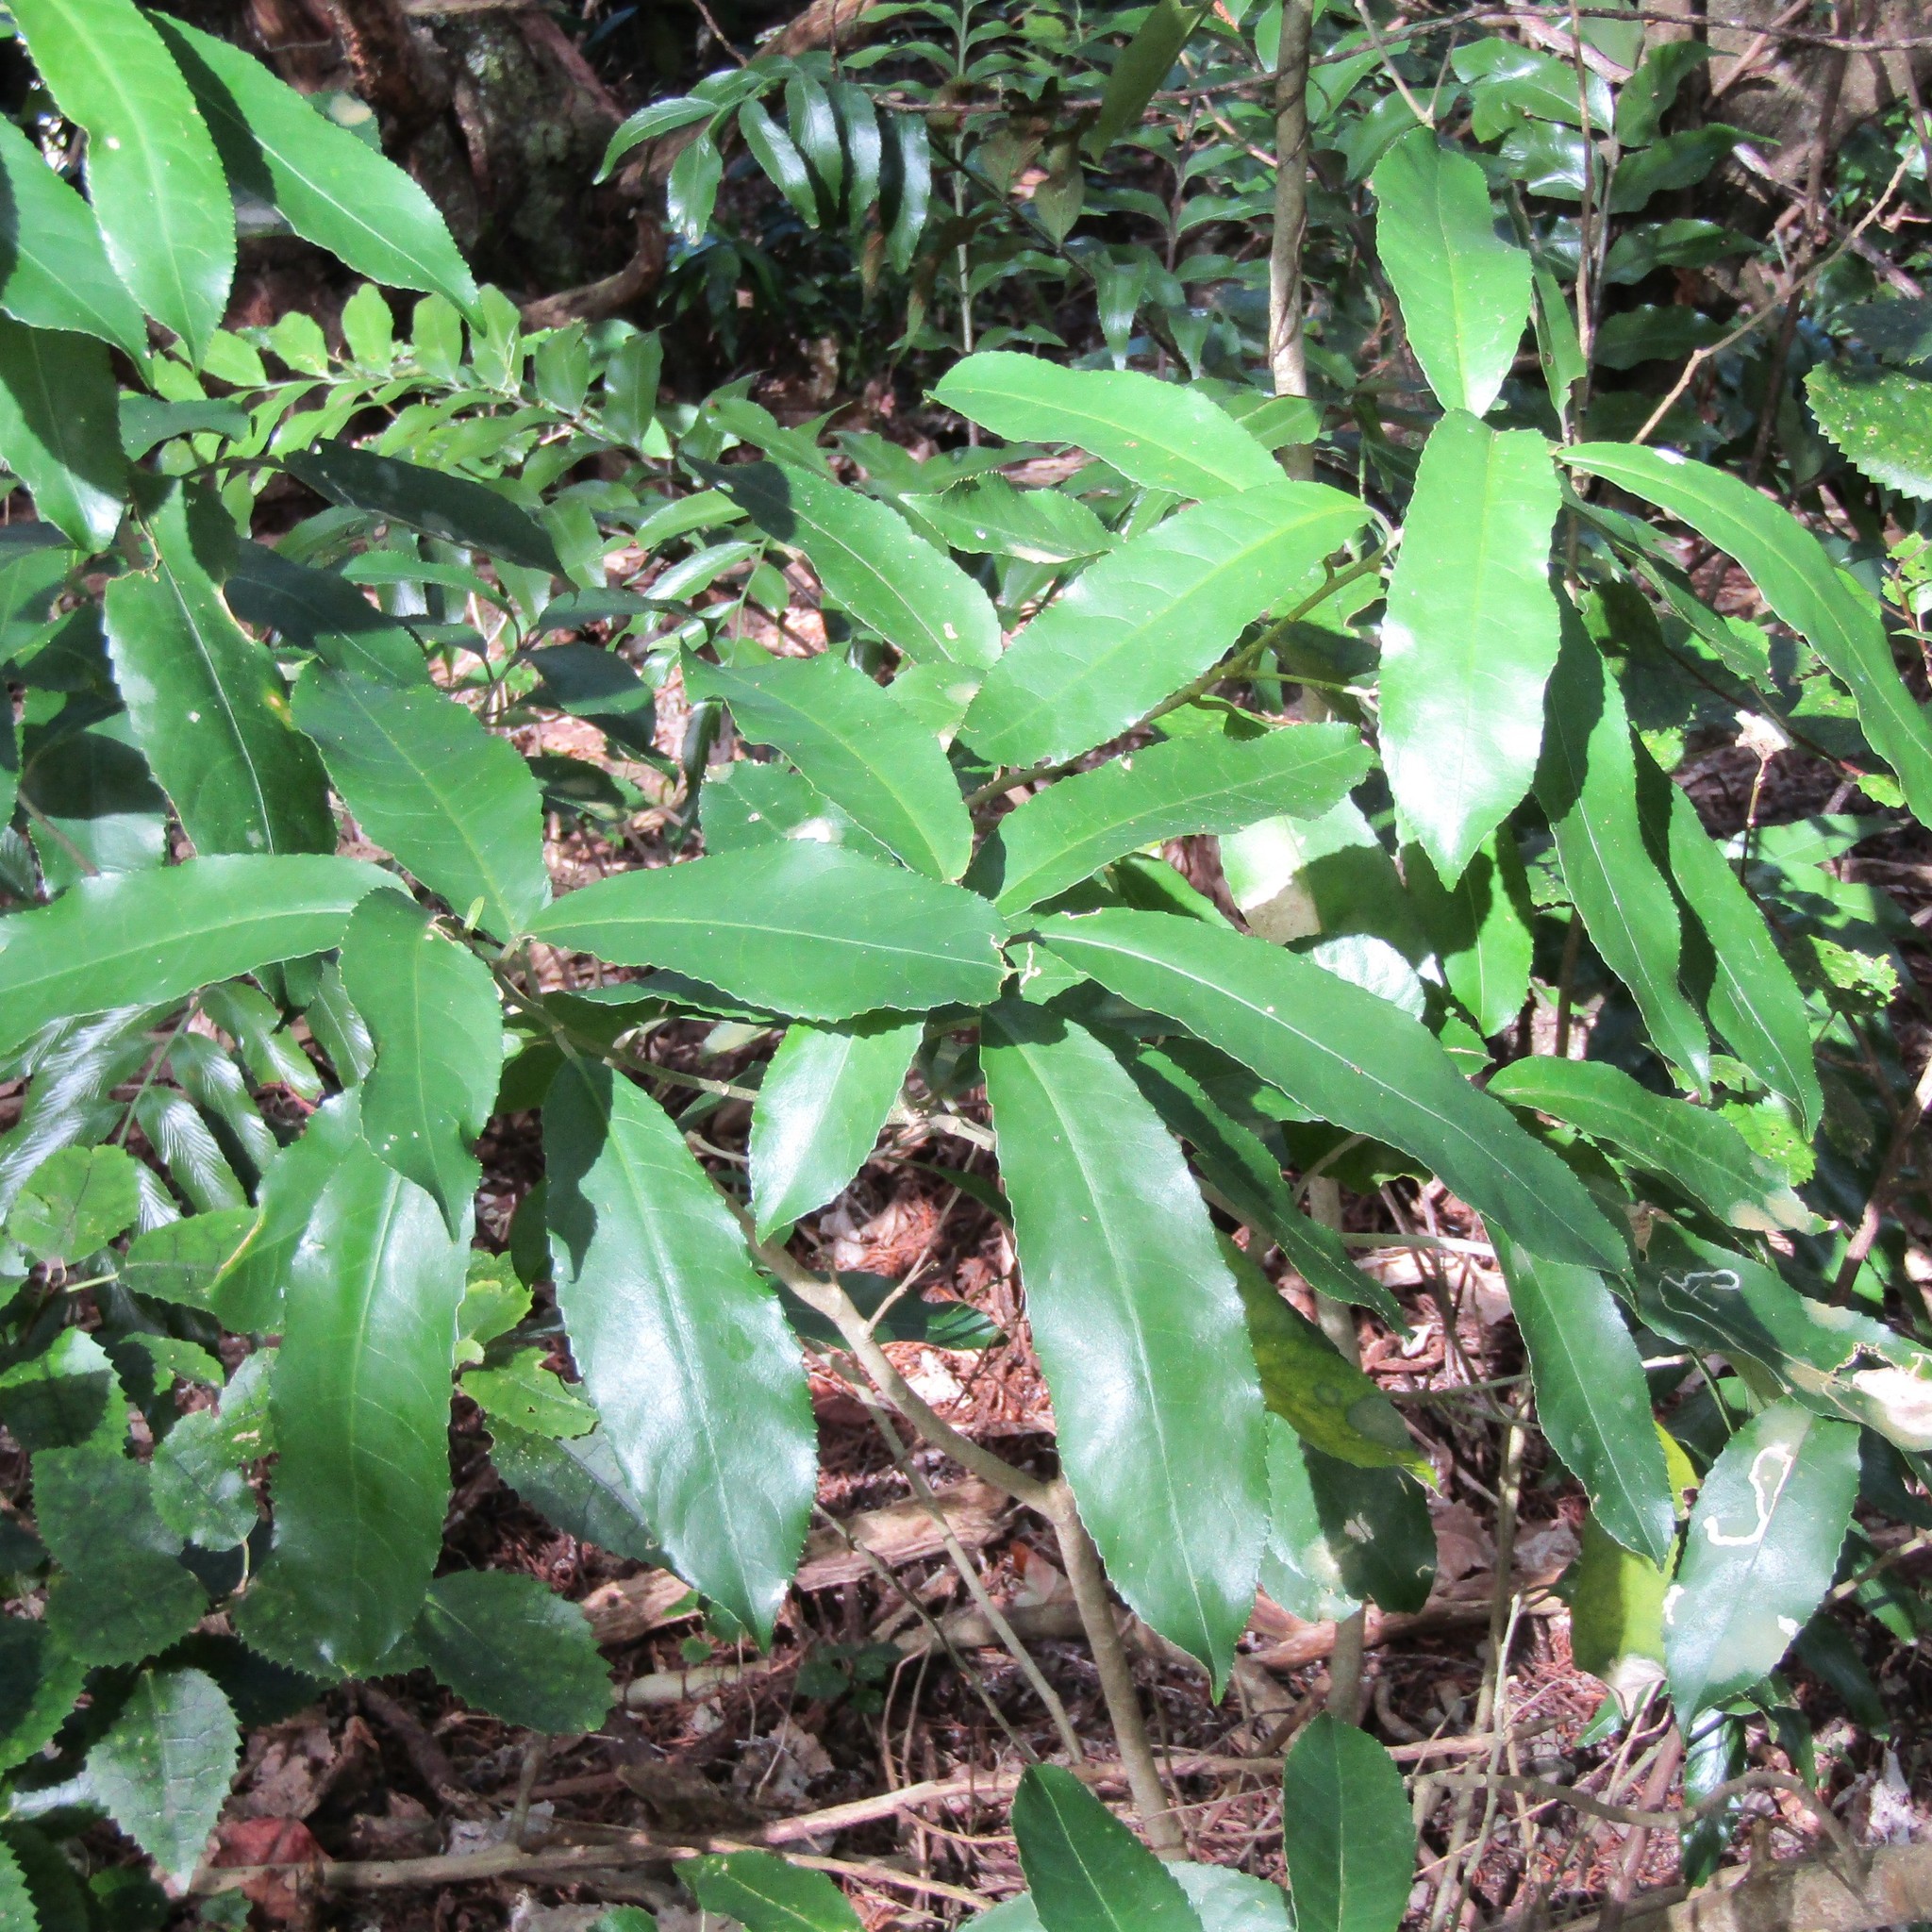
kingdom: Plantae
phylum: Tracheophyta
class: Magnoliopsida
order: Malpighiales
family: Violaceae
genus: Melicytus
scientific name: Melicytus ramiflorus
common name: Mahoe
